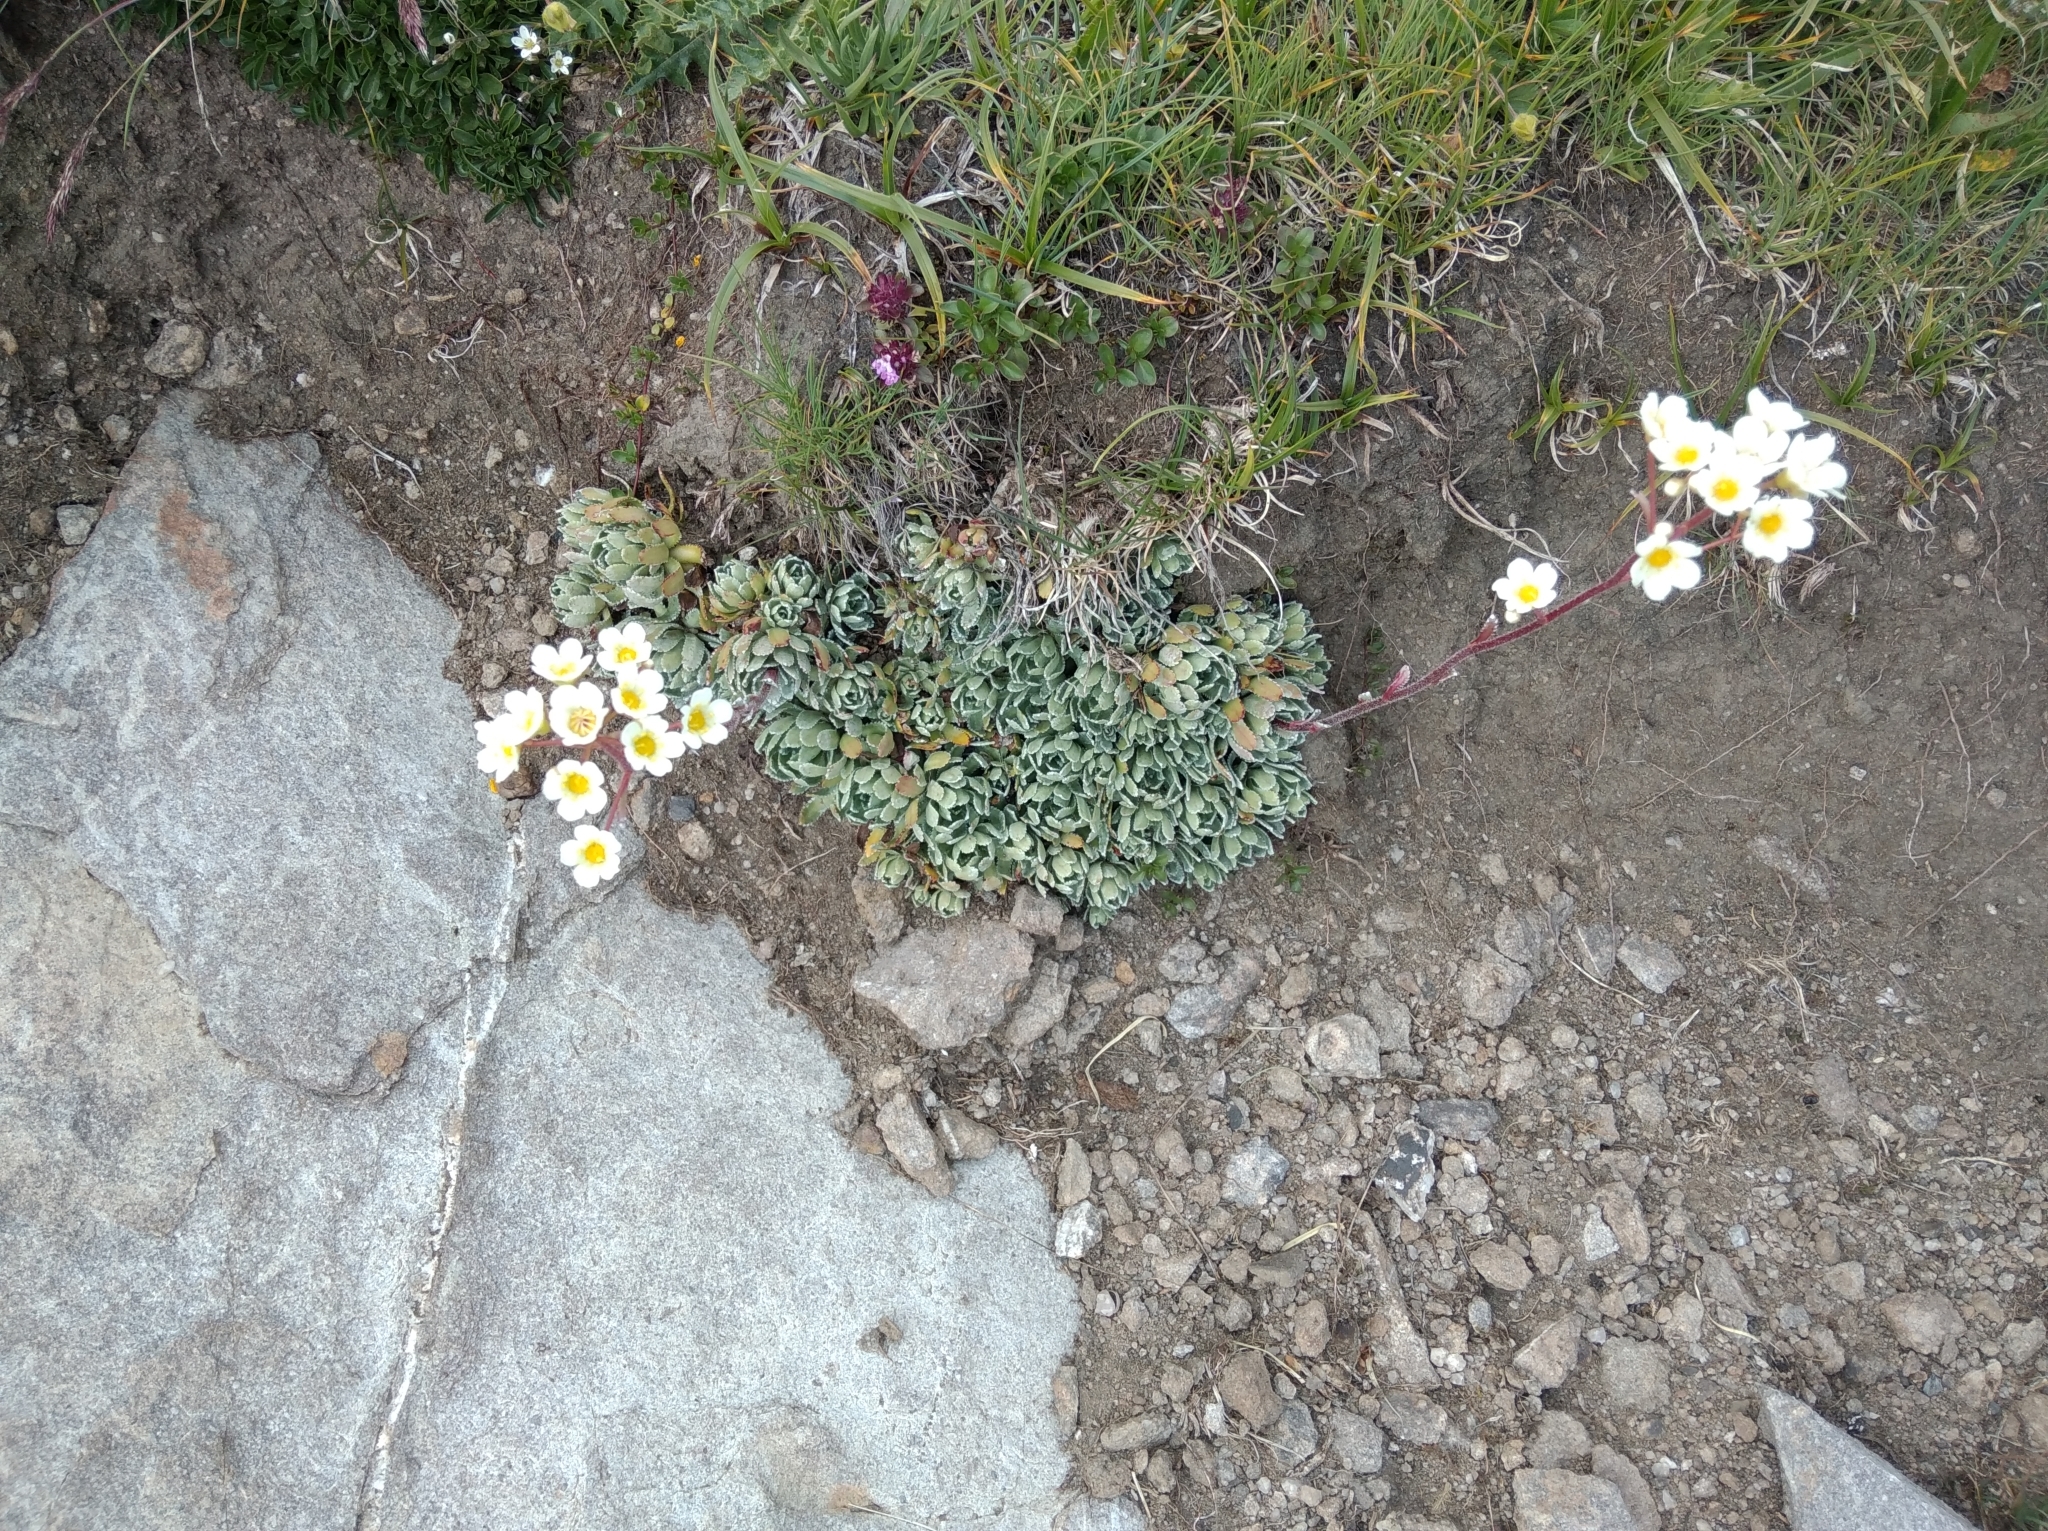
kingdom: Plantae
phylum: Tracheophyta
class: Magnoliopsida
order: Saxifragales
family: Saxifragaceae
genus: Saxifraga
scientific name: Saxifraga paniculata
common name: Livelong saxifrage
